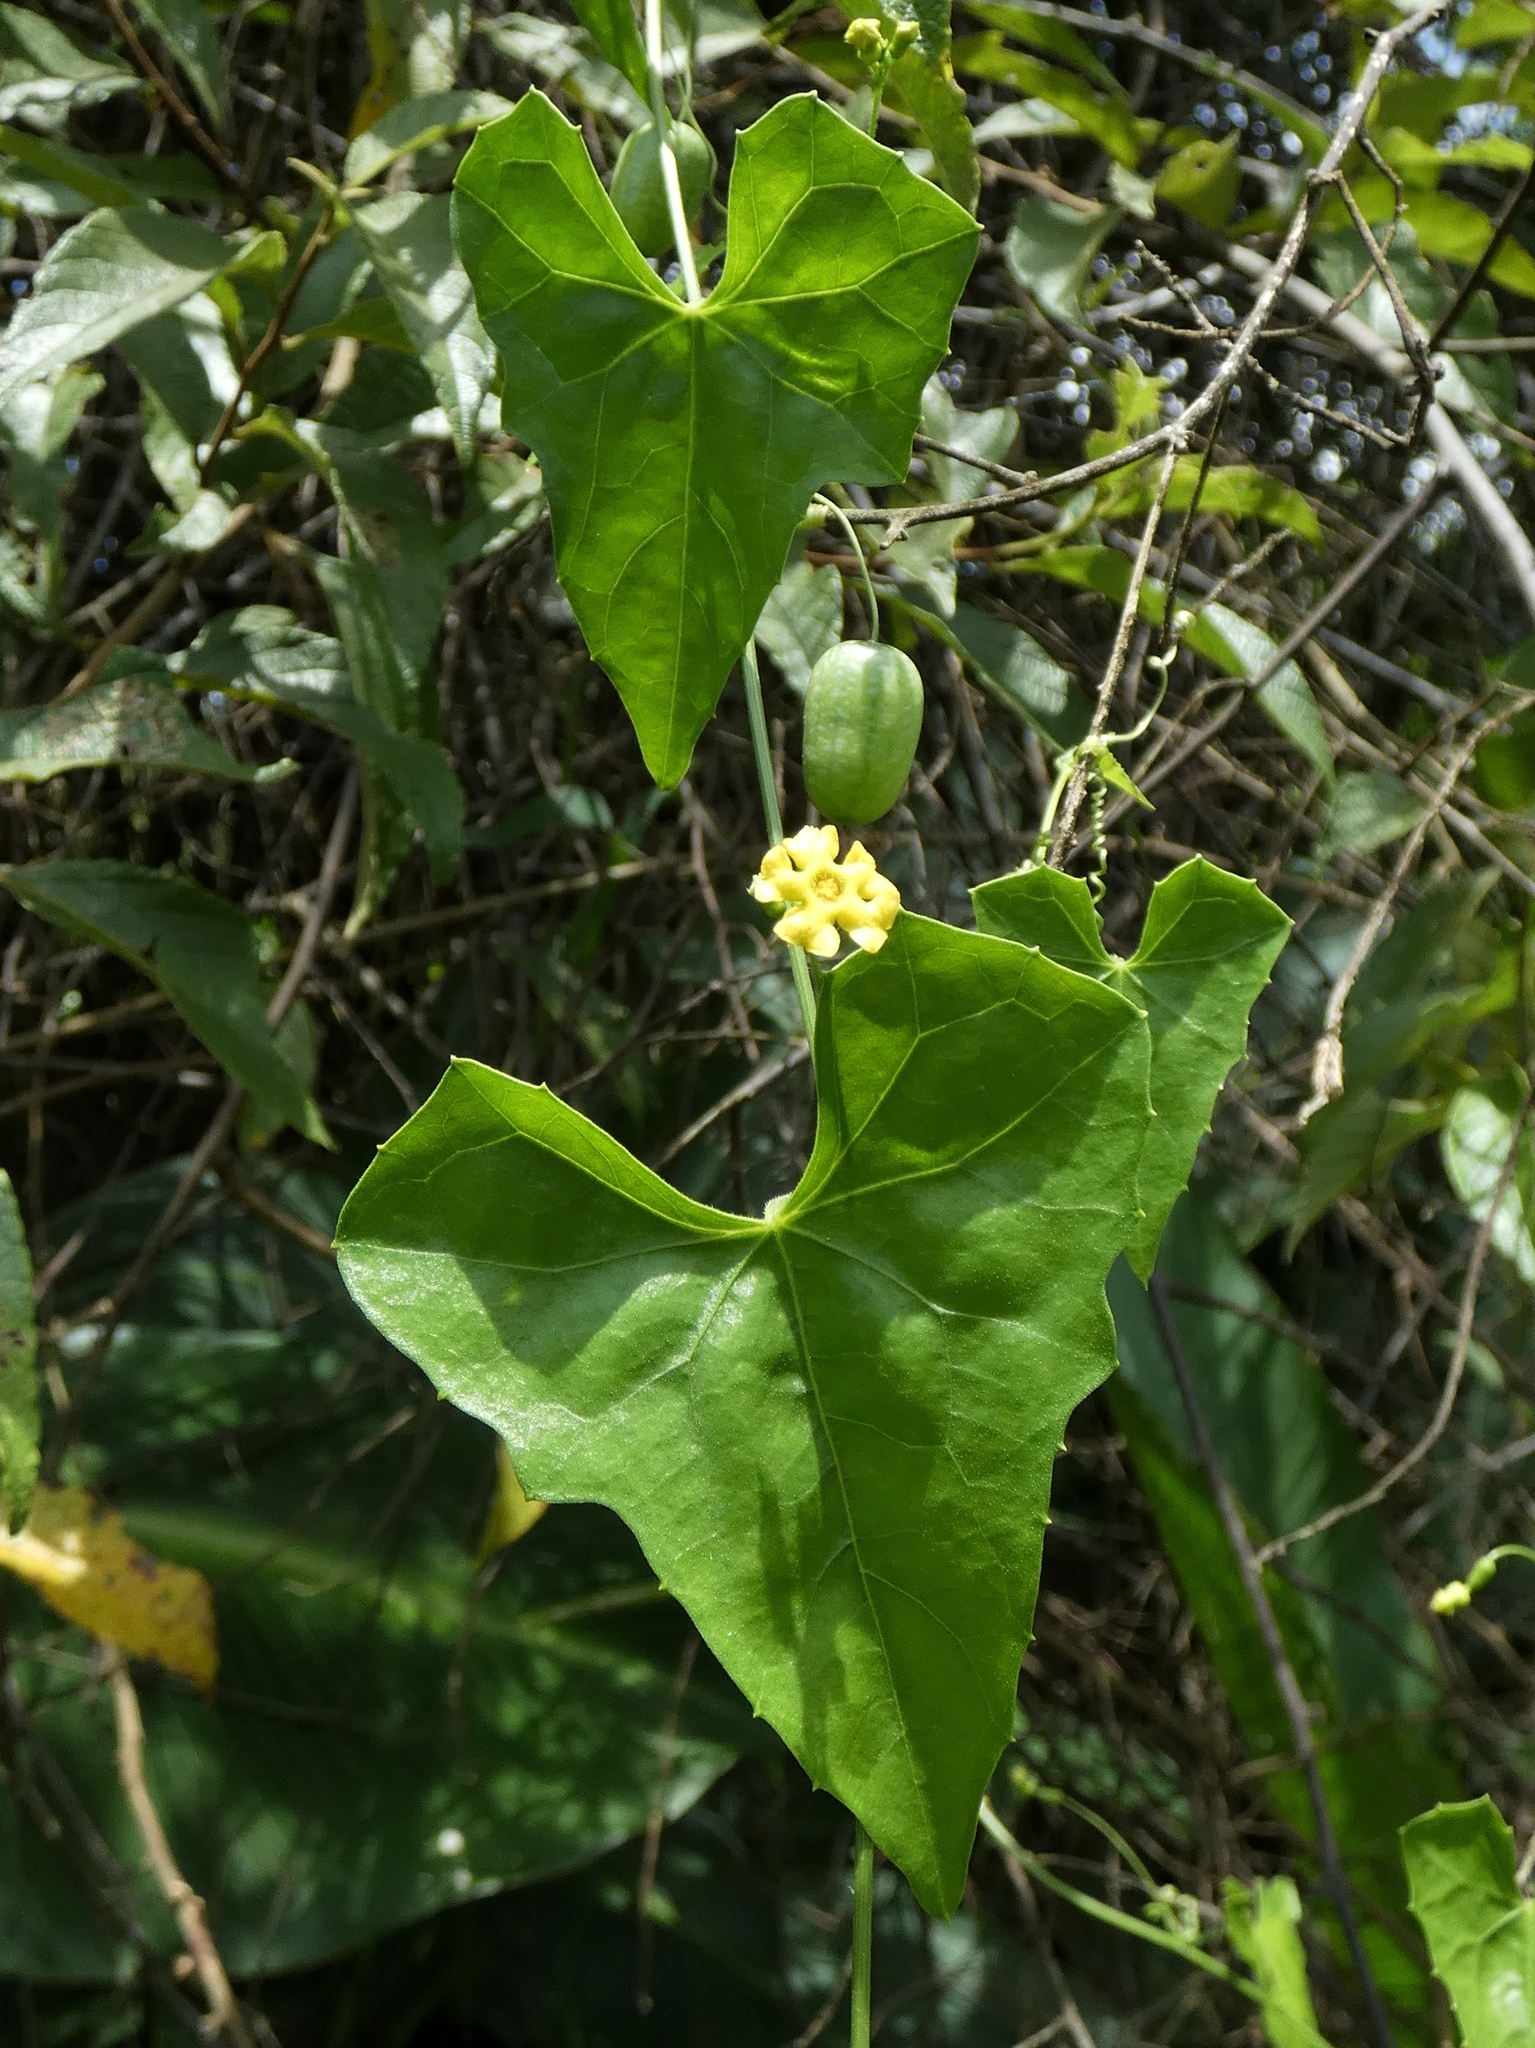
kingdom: Plantae
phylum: Tracheophyta
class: Magnoliopsida
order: Cucurbitales
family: Cucurbitaceae
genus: Melothria
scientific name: Melothria pendula
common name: Creeping-cucumber
